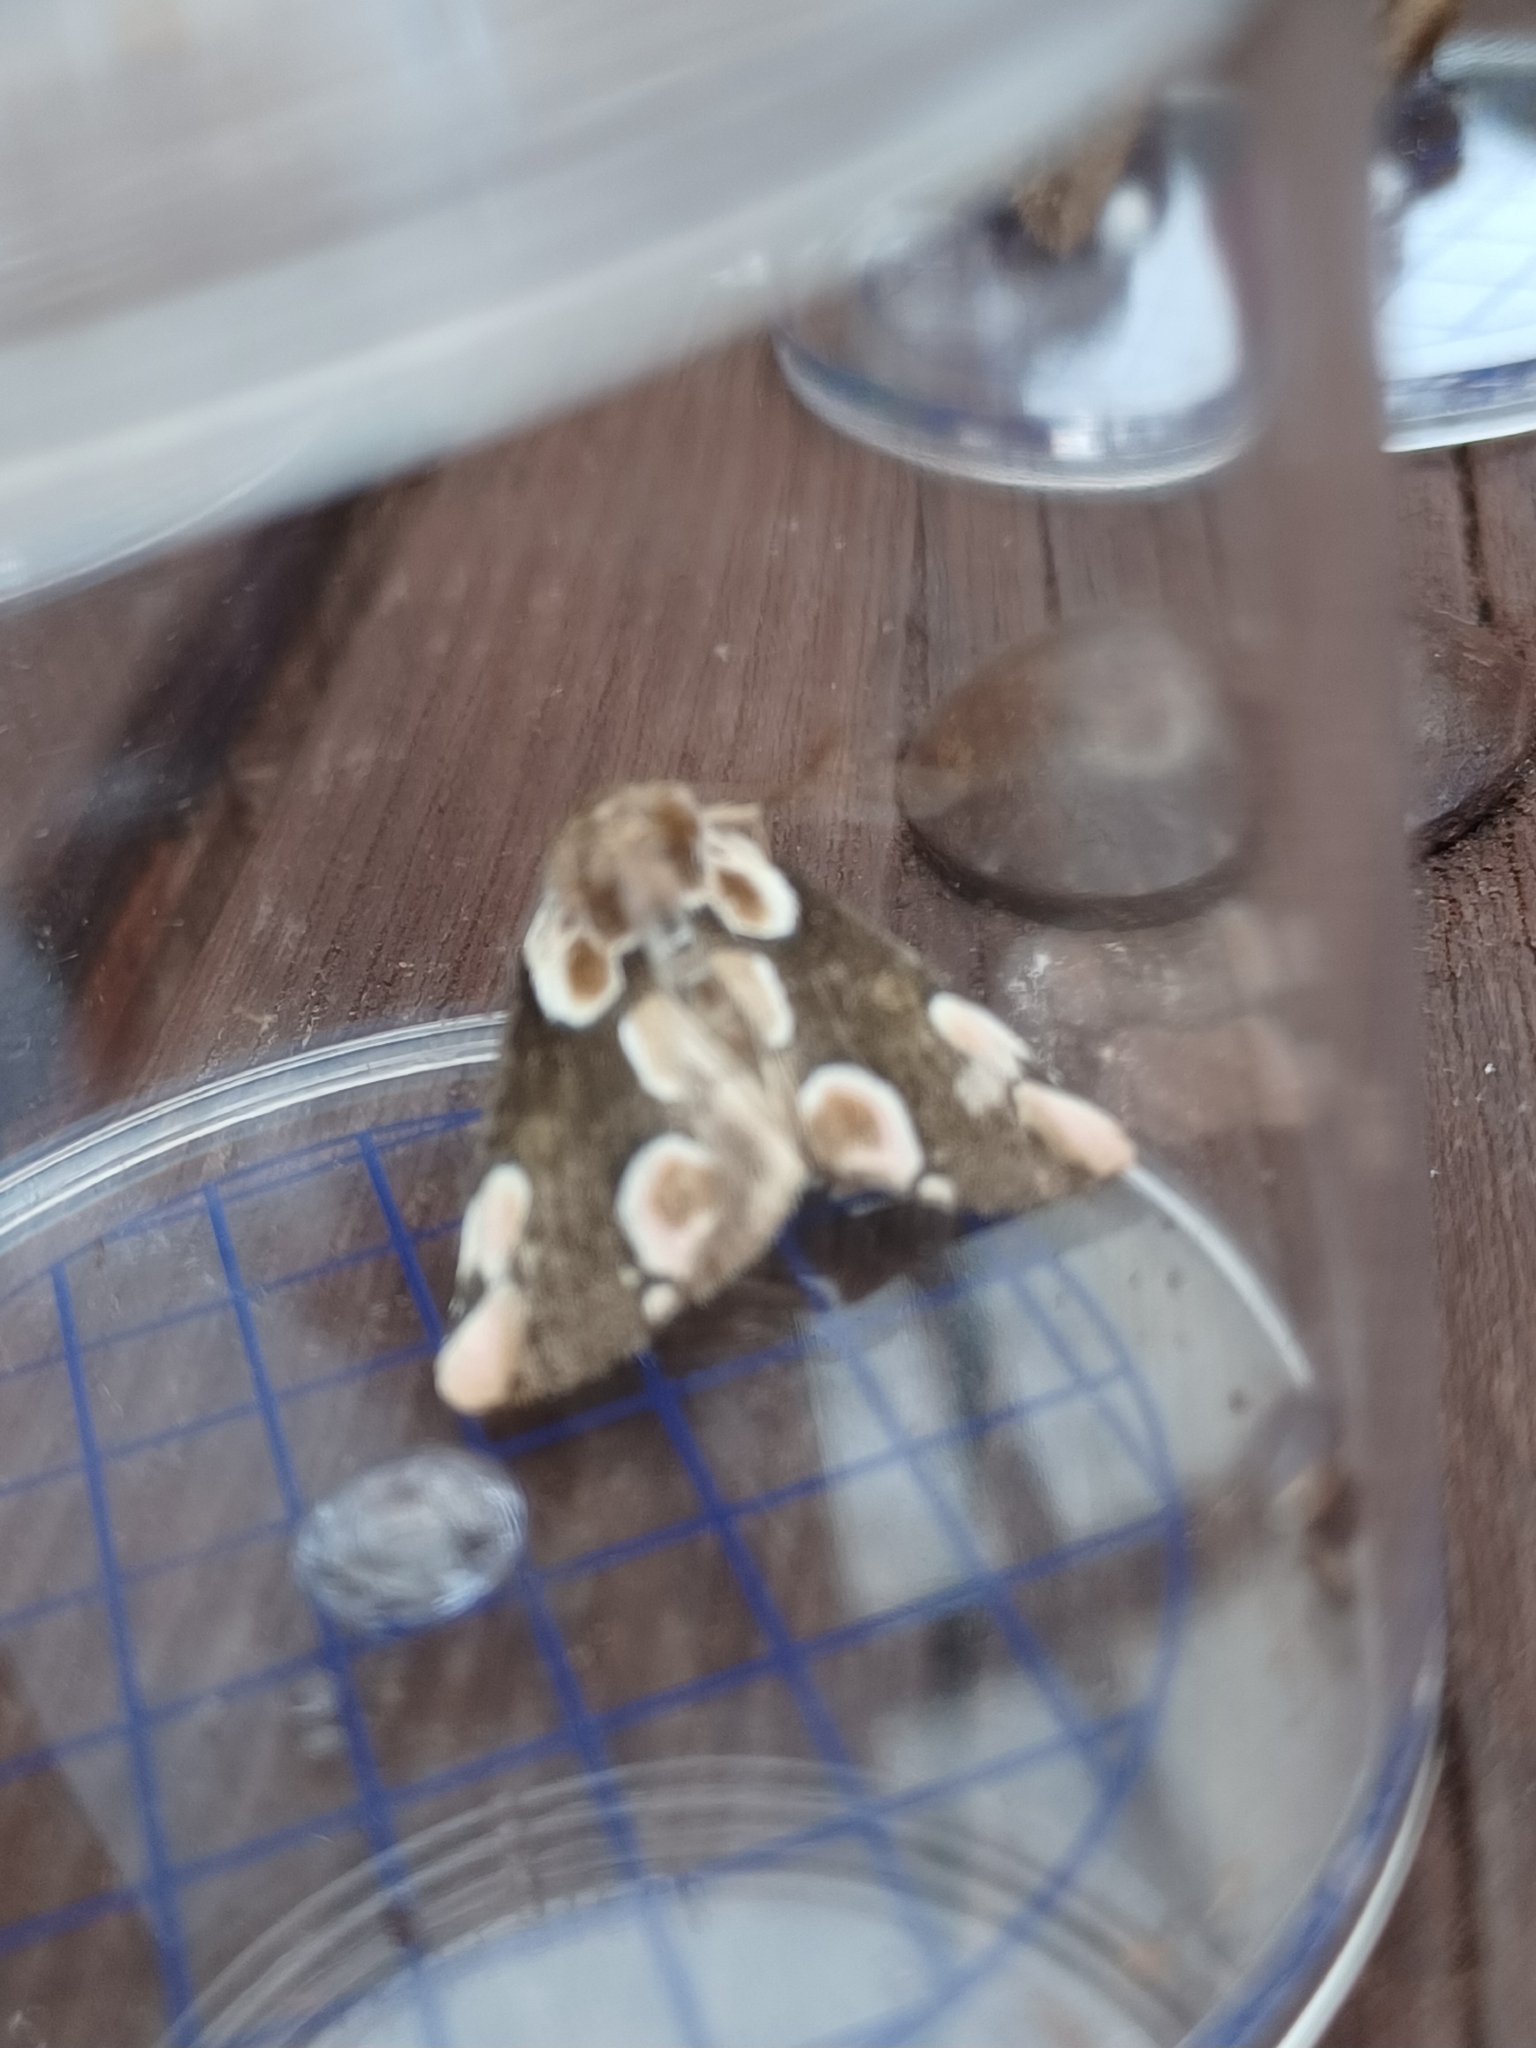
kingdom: Animalia
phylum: Arthropoda
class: Insecta
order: Lepidoptera
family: Drepanidae
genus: Thyatira
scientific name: Thyatira batis
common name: Peach blossom
